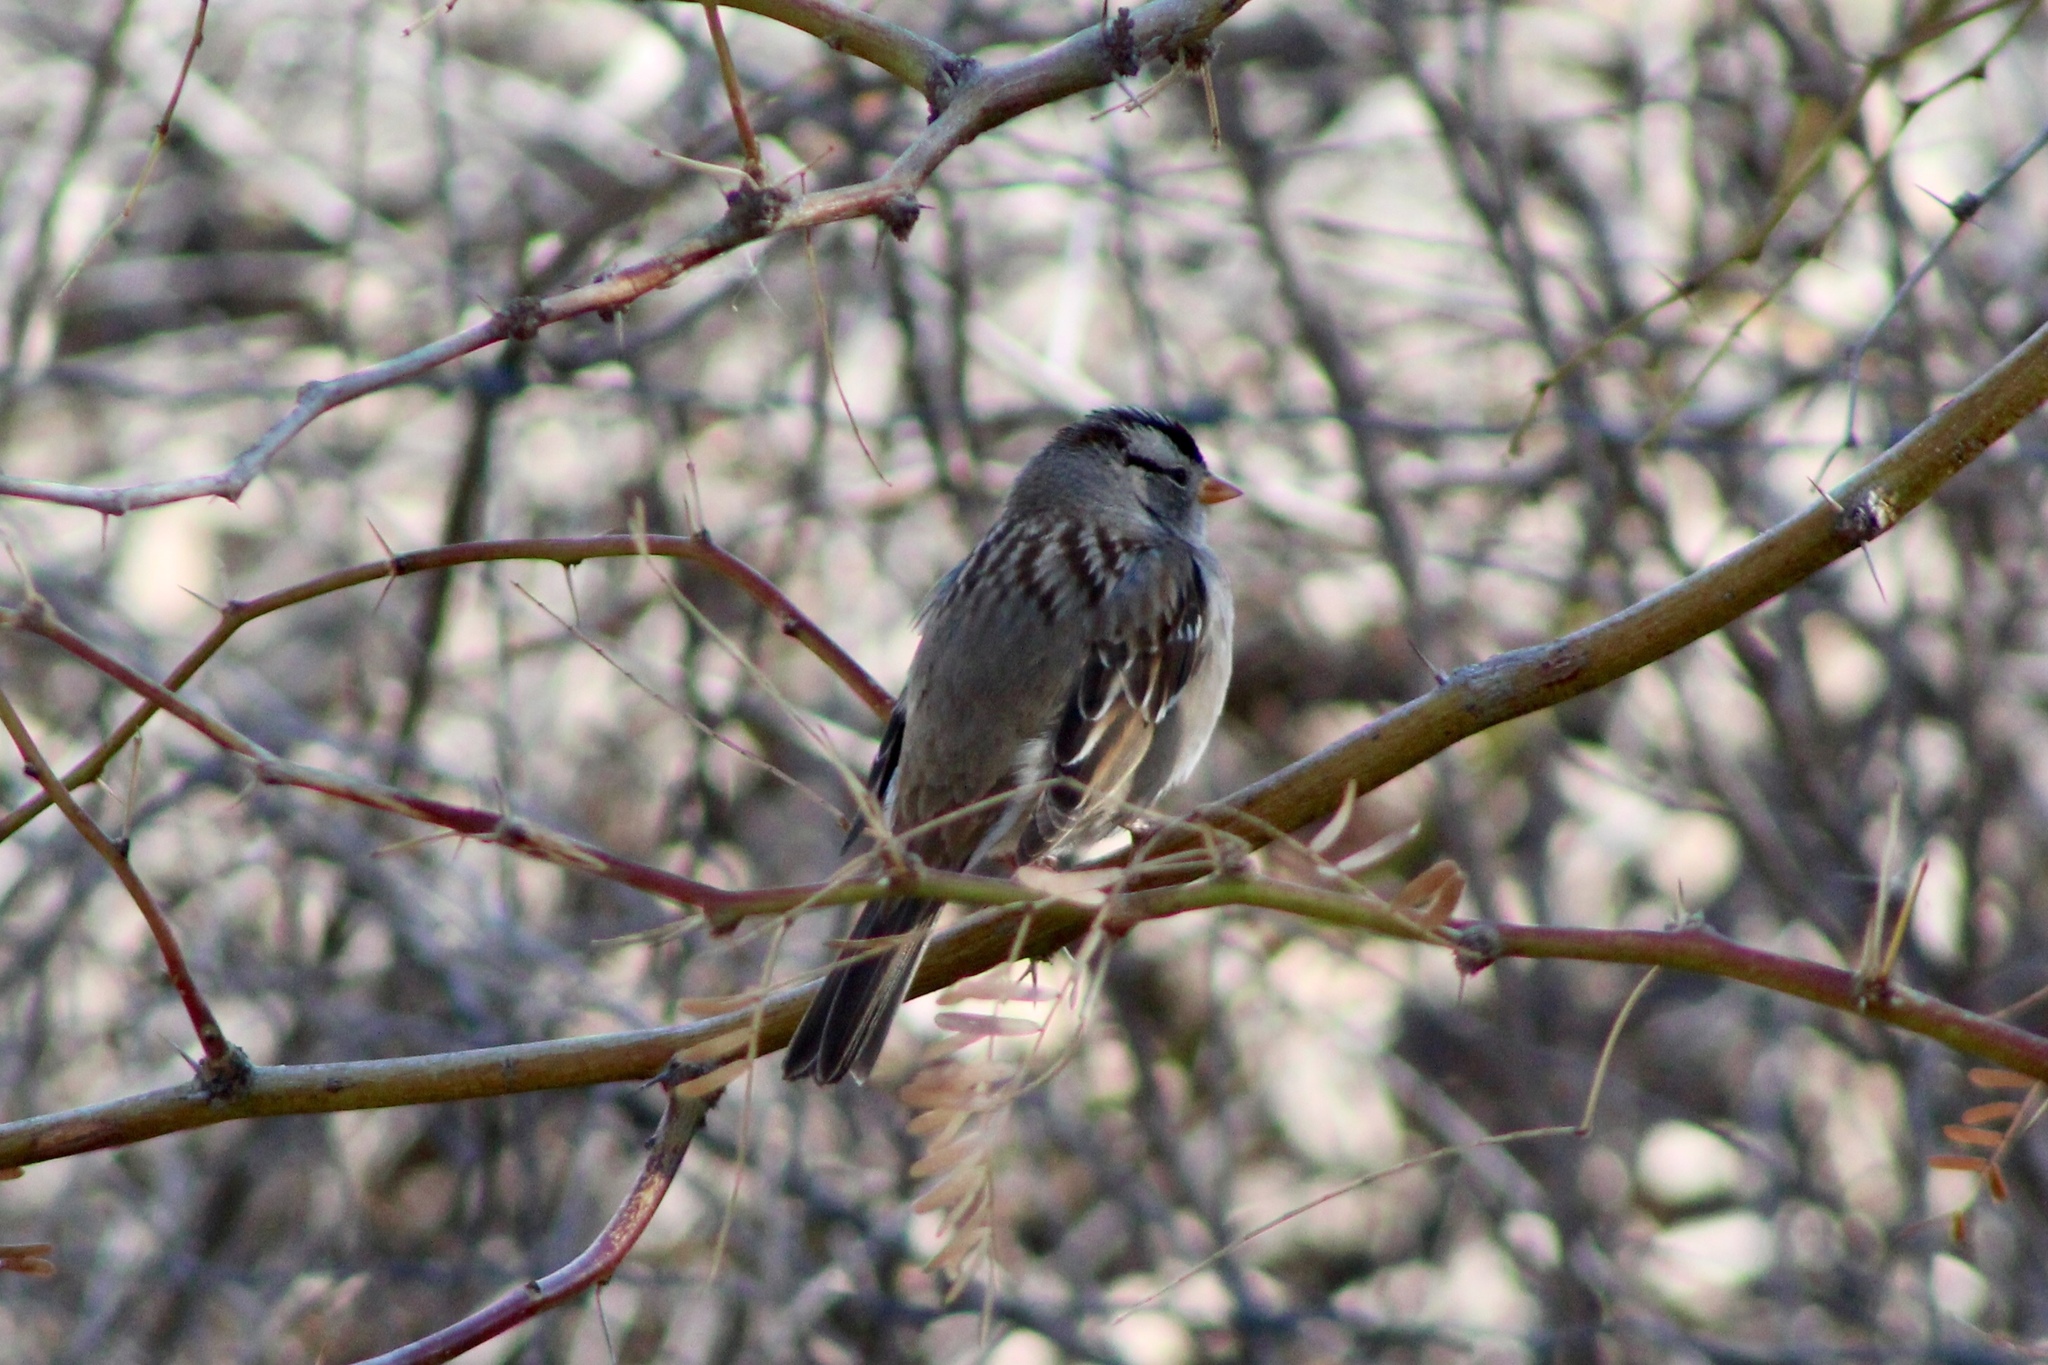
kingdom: Animalia
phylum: Chordata
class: Aves
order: Passeriformes
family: Passerellidae
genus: Zonotrichia
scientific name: Zonotrichia leucophrys
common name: White-crowned sparrow
